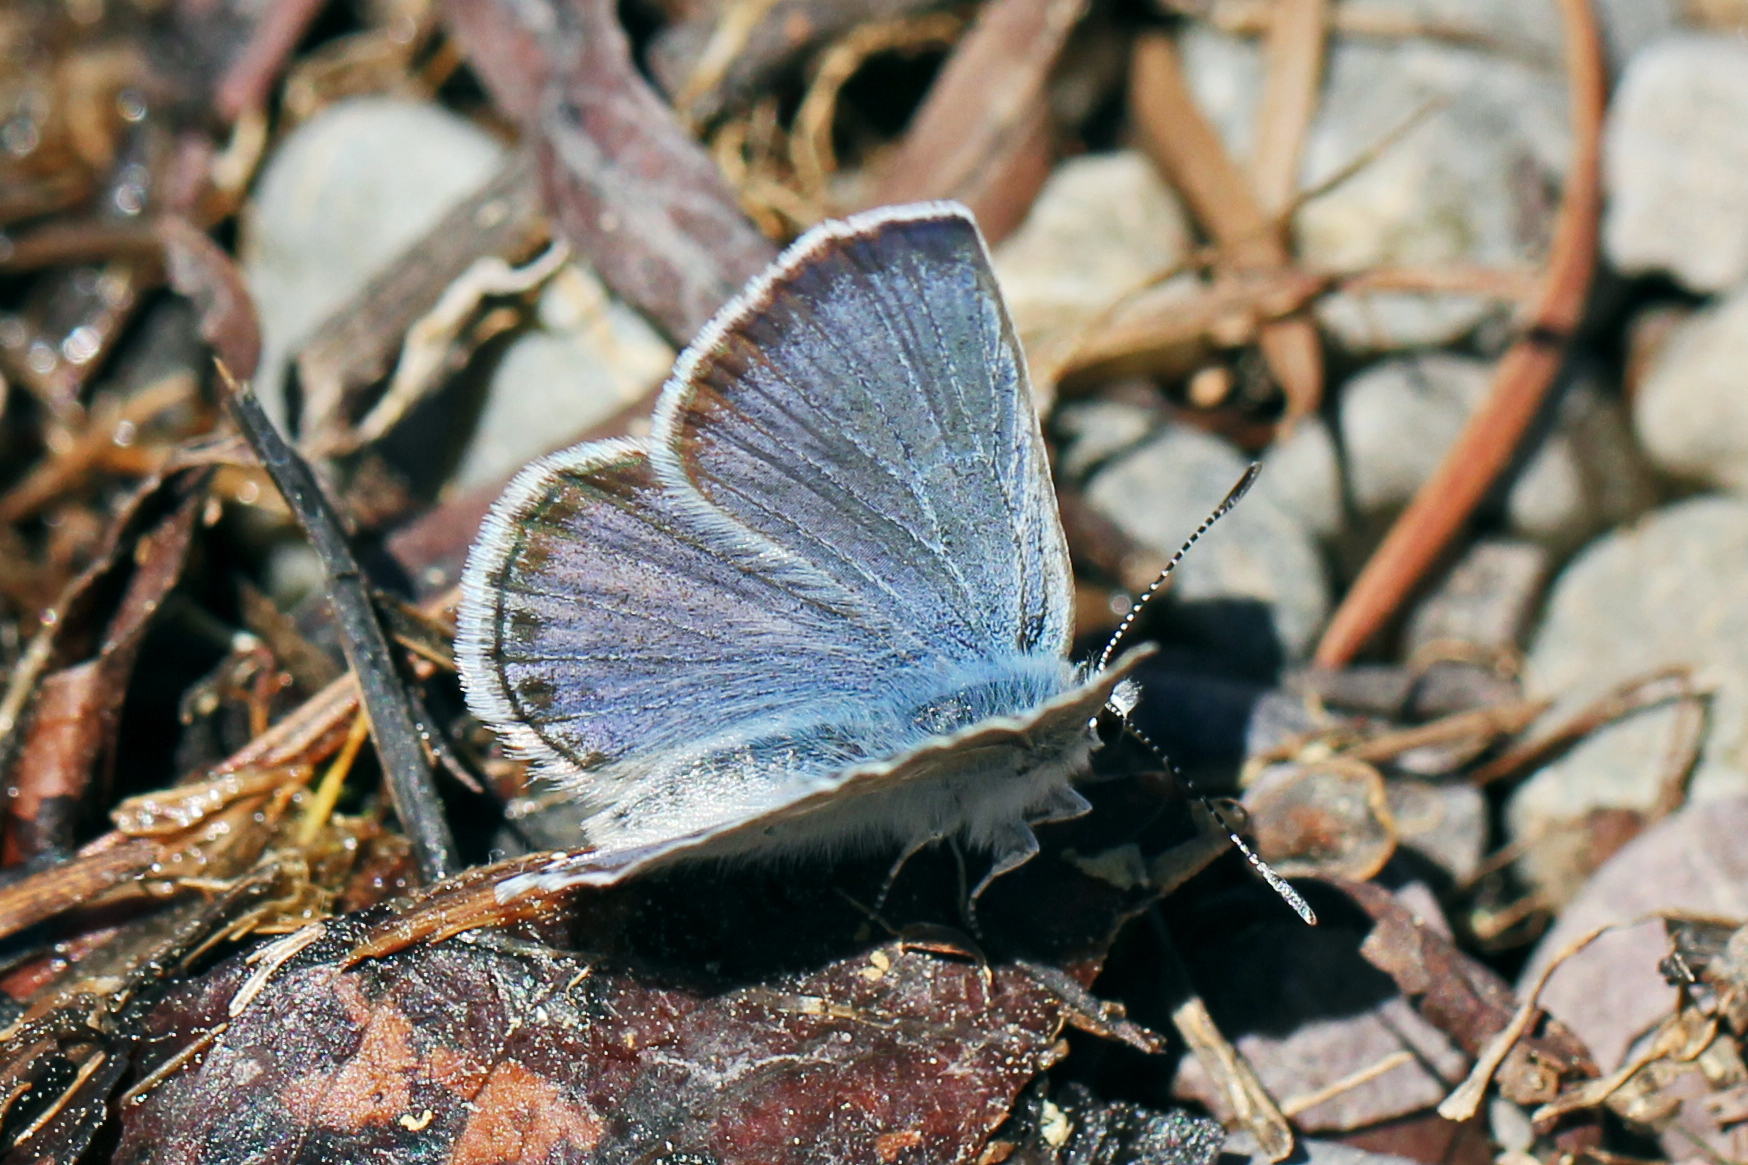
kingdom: Animalia
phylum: Arthropoda
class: Insecta
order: Lepidoptera
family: Lycaenidae
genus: Icaricia
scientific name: Icaricia icarioides
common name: Boisduval's blue
